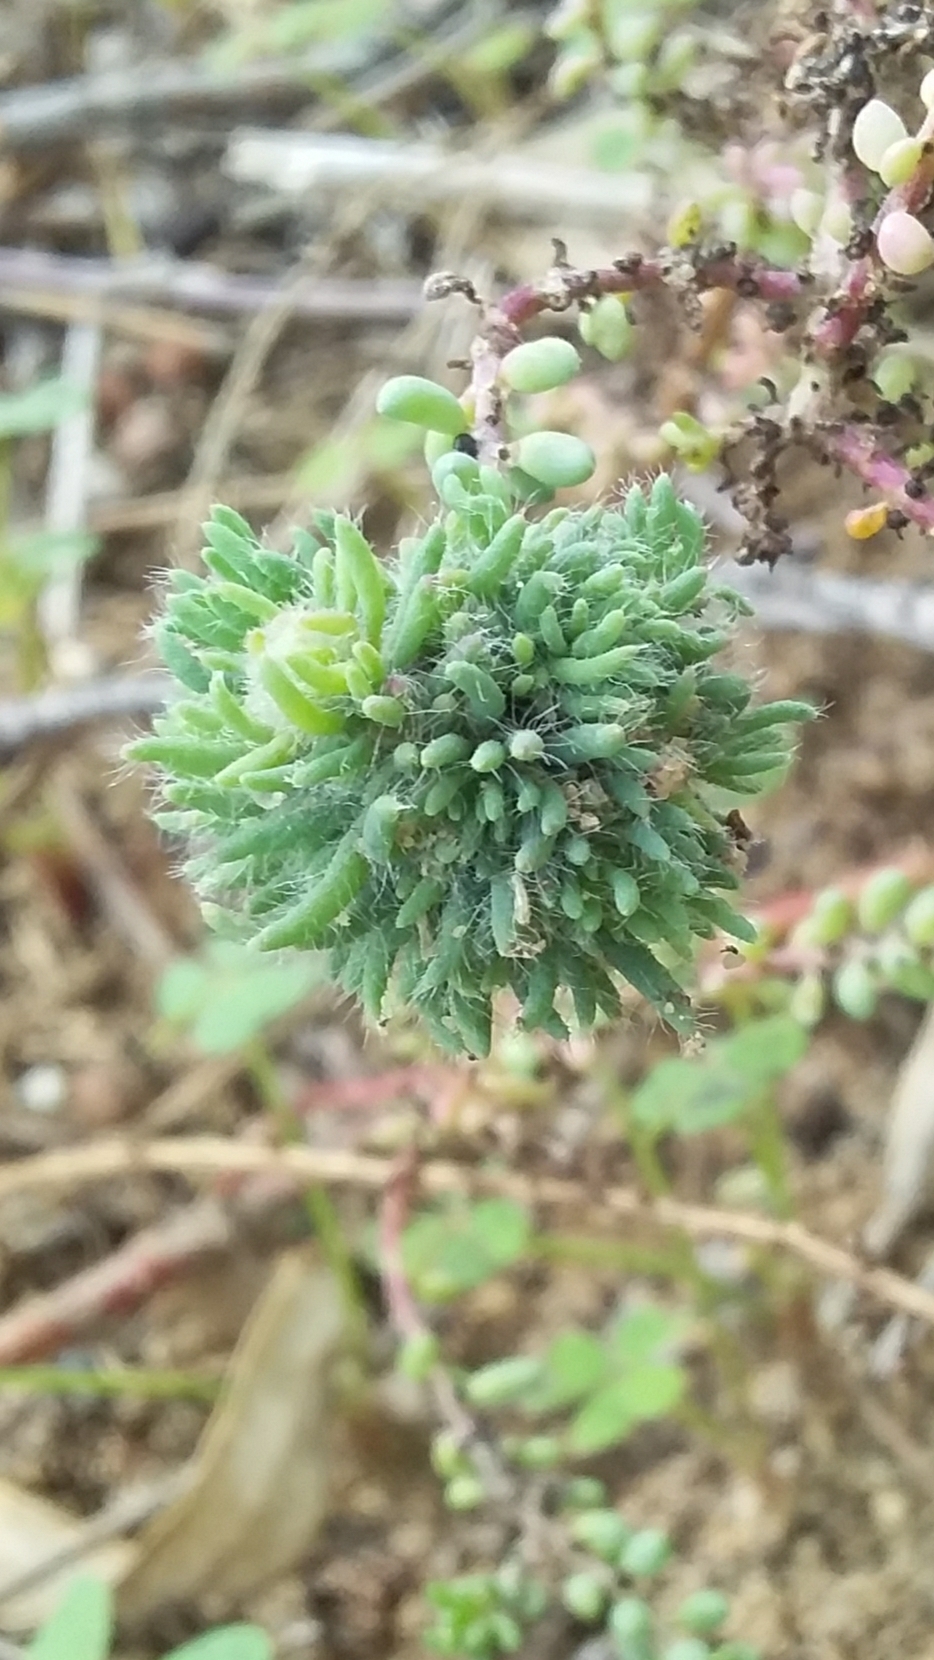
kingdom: Animalia
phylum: Arthropoda
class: Insecta
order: Diptera
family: Cecidomyiidae
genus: Dactylasioptera
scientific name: Dactylasioptera milnae
